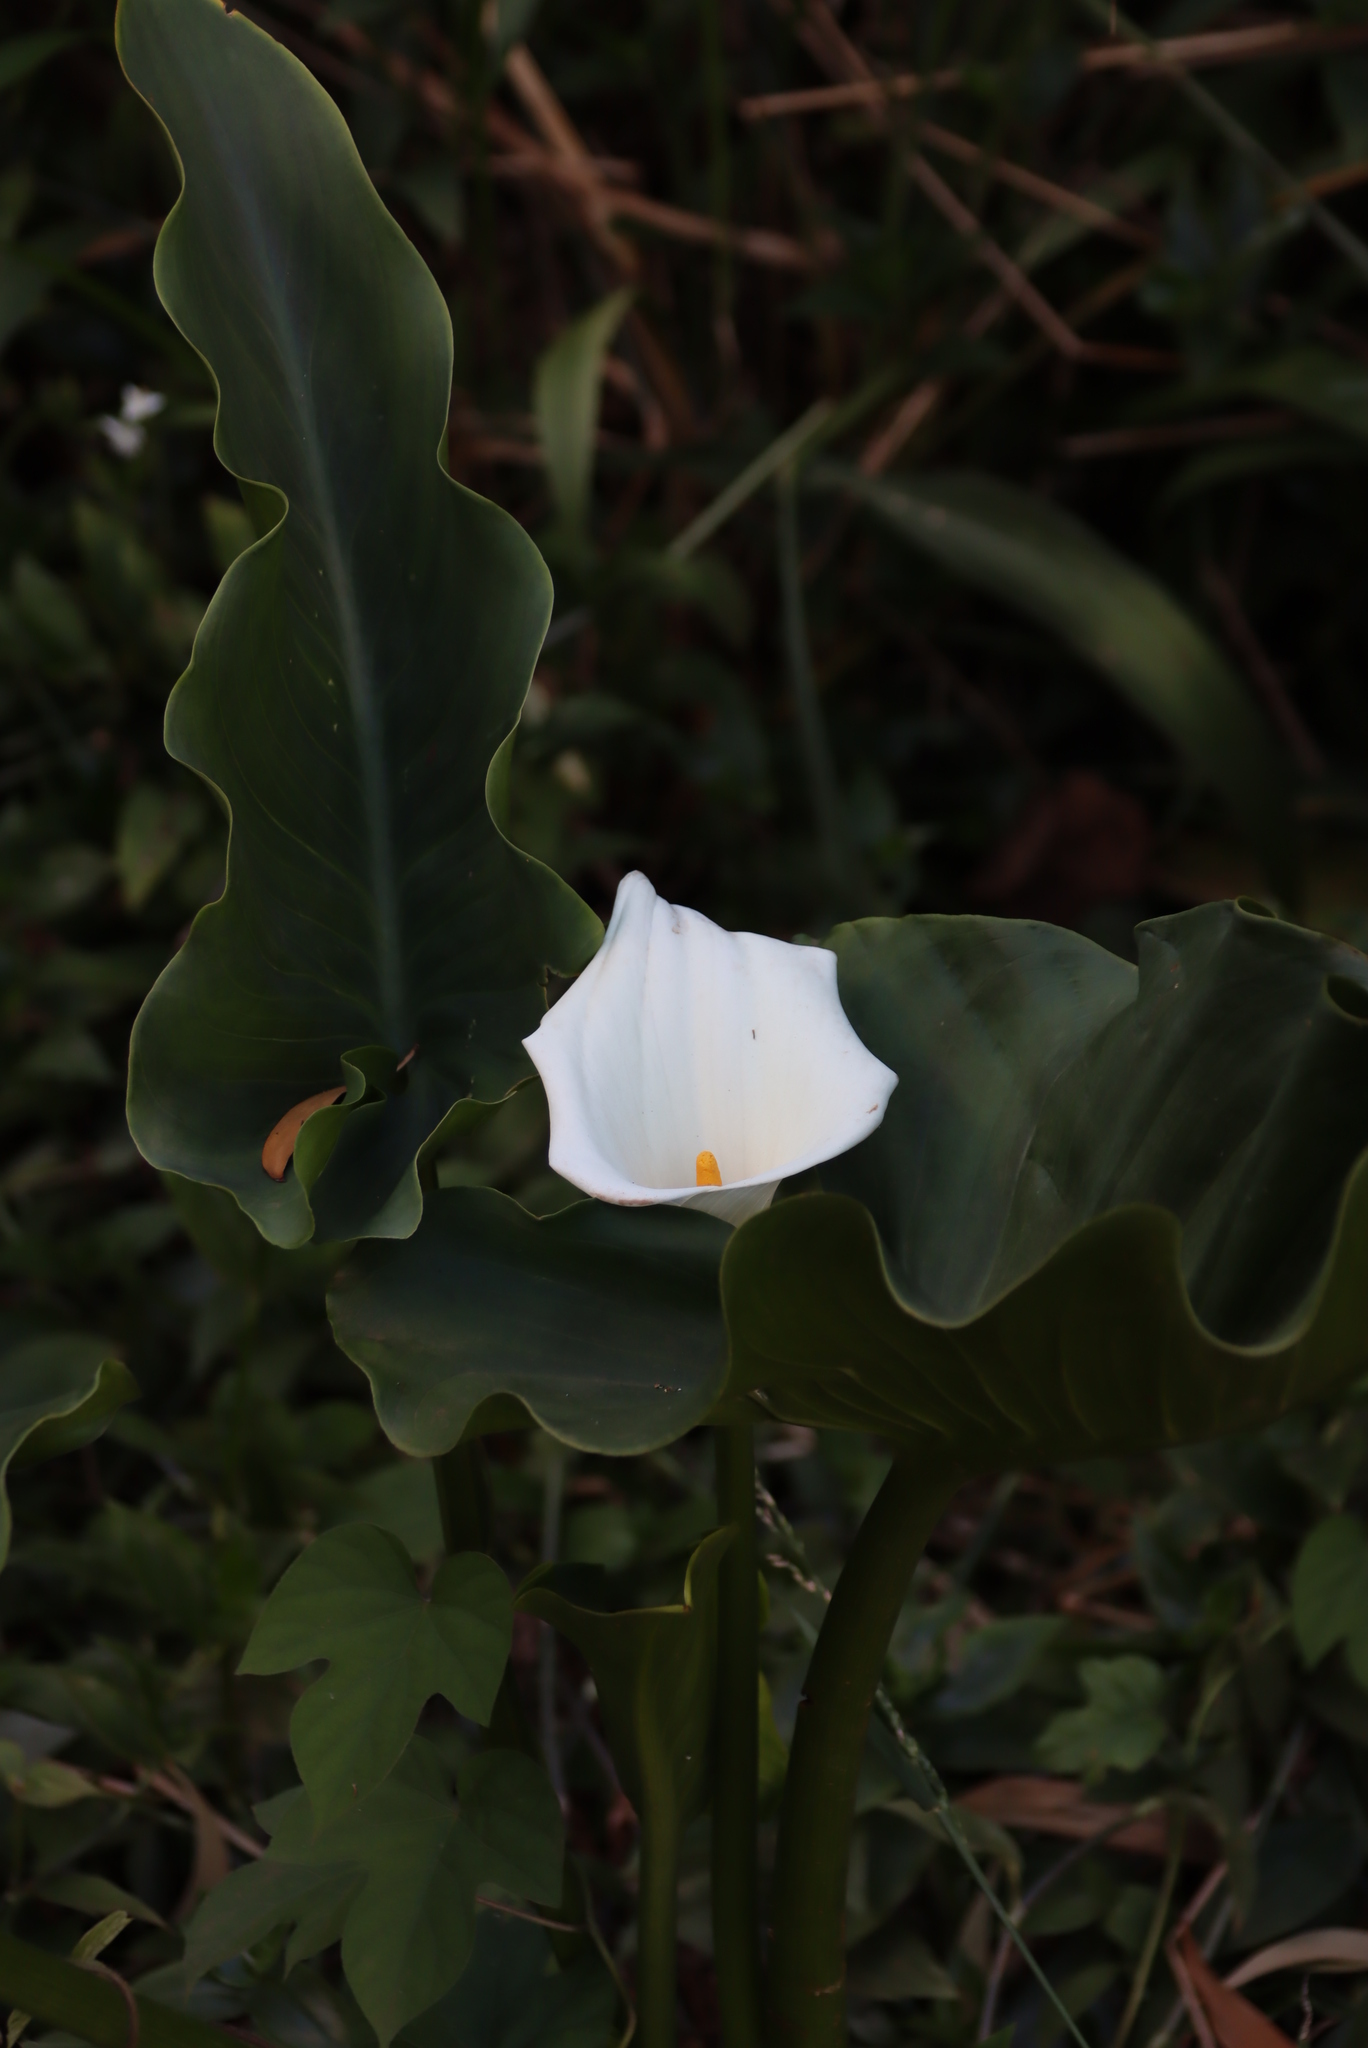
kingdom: Plantae
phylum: Tracheophyta
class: Liliopsida
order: Alismatales
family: Araceae
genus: Zantedeschia
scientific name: Zantedeschia aethiopica
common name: Altar-lily
